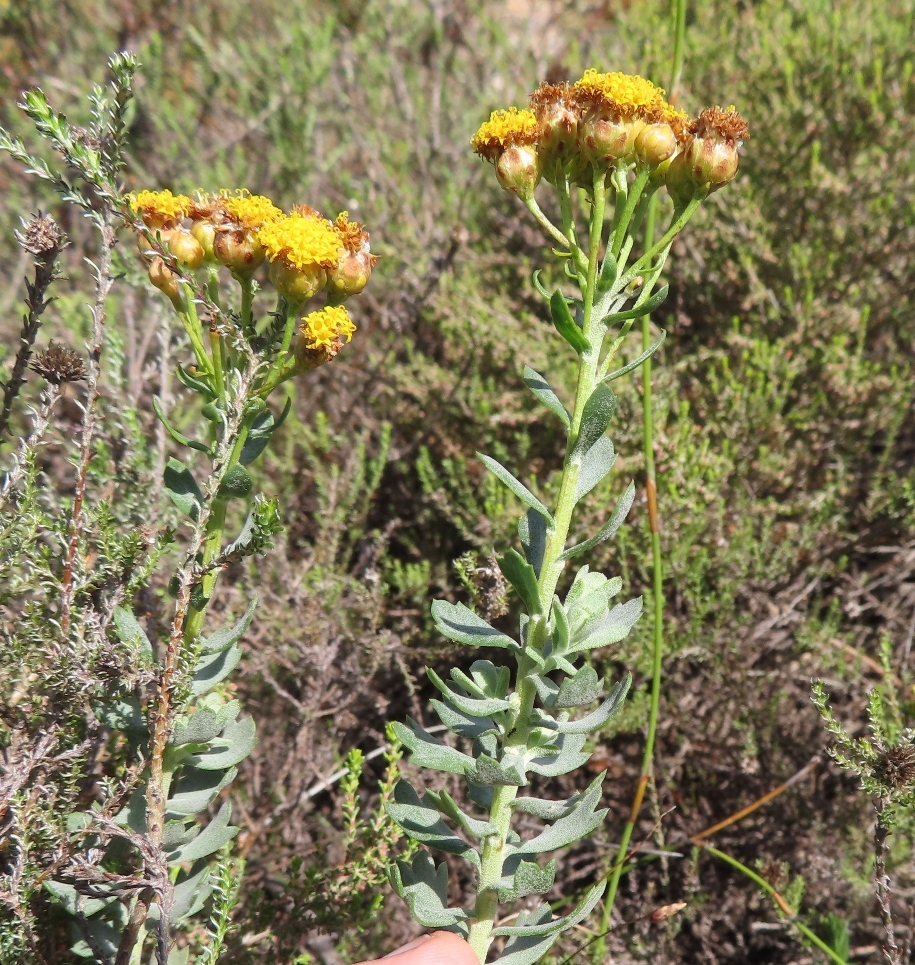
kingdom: Plantae
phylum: Tracheophyta
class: Magnoliopsida
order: Asterales
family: Asteraceae
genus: Athanasia
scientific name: Athanasia trifurcata
